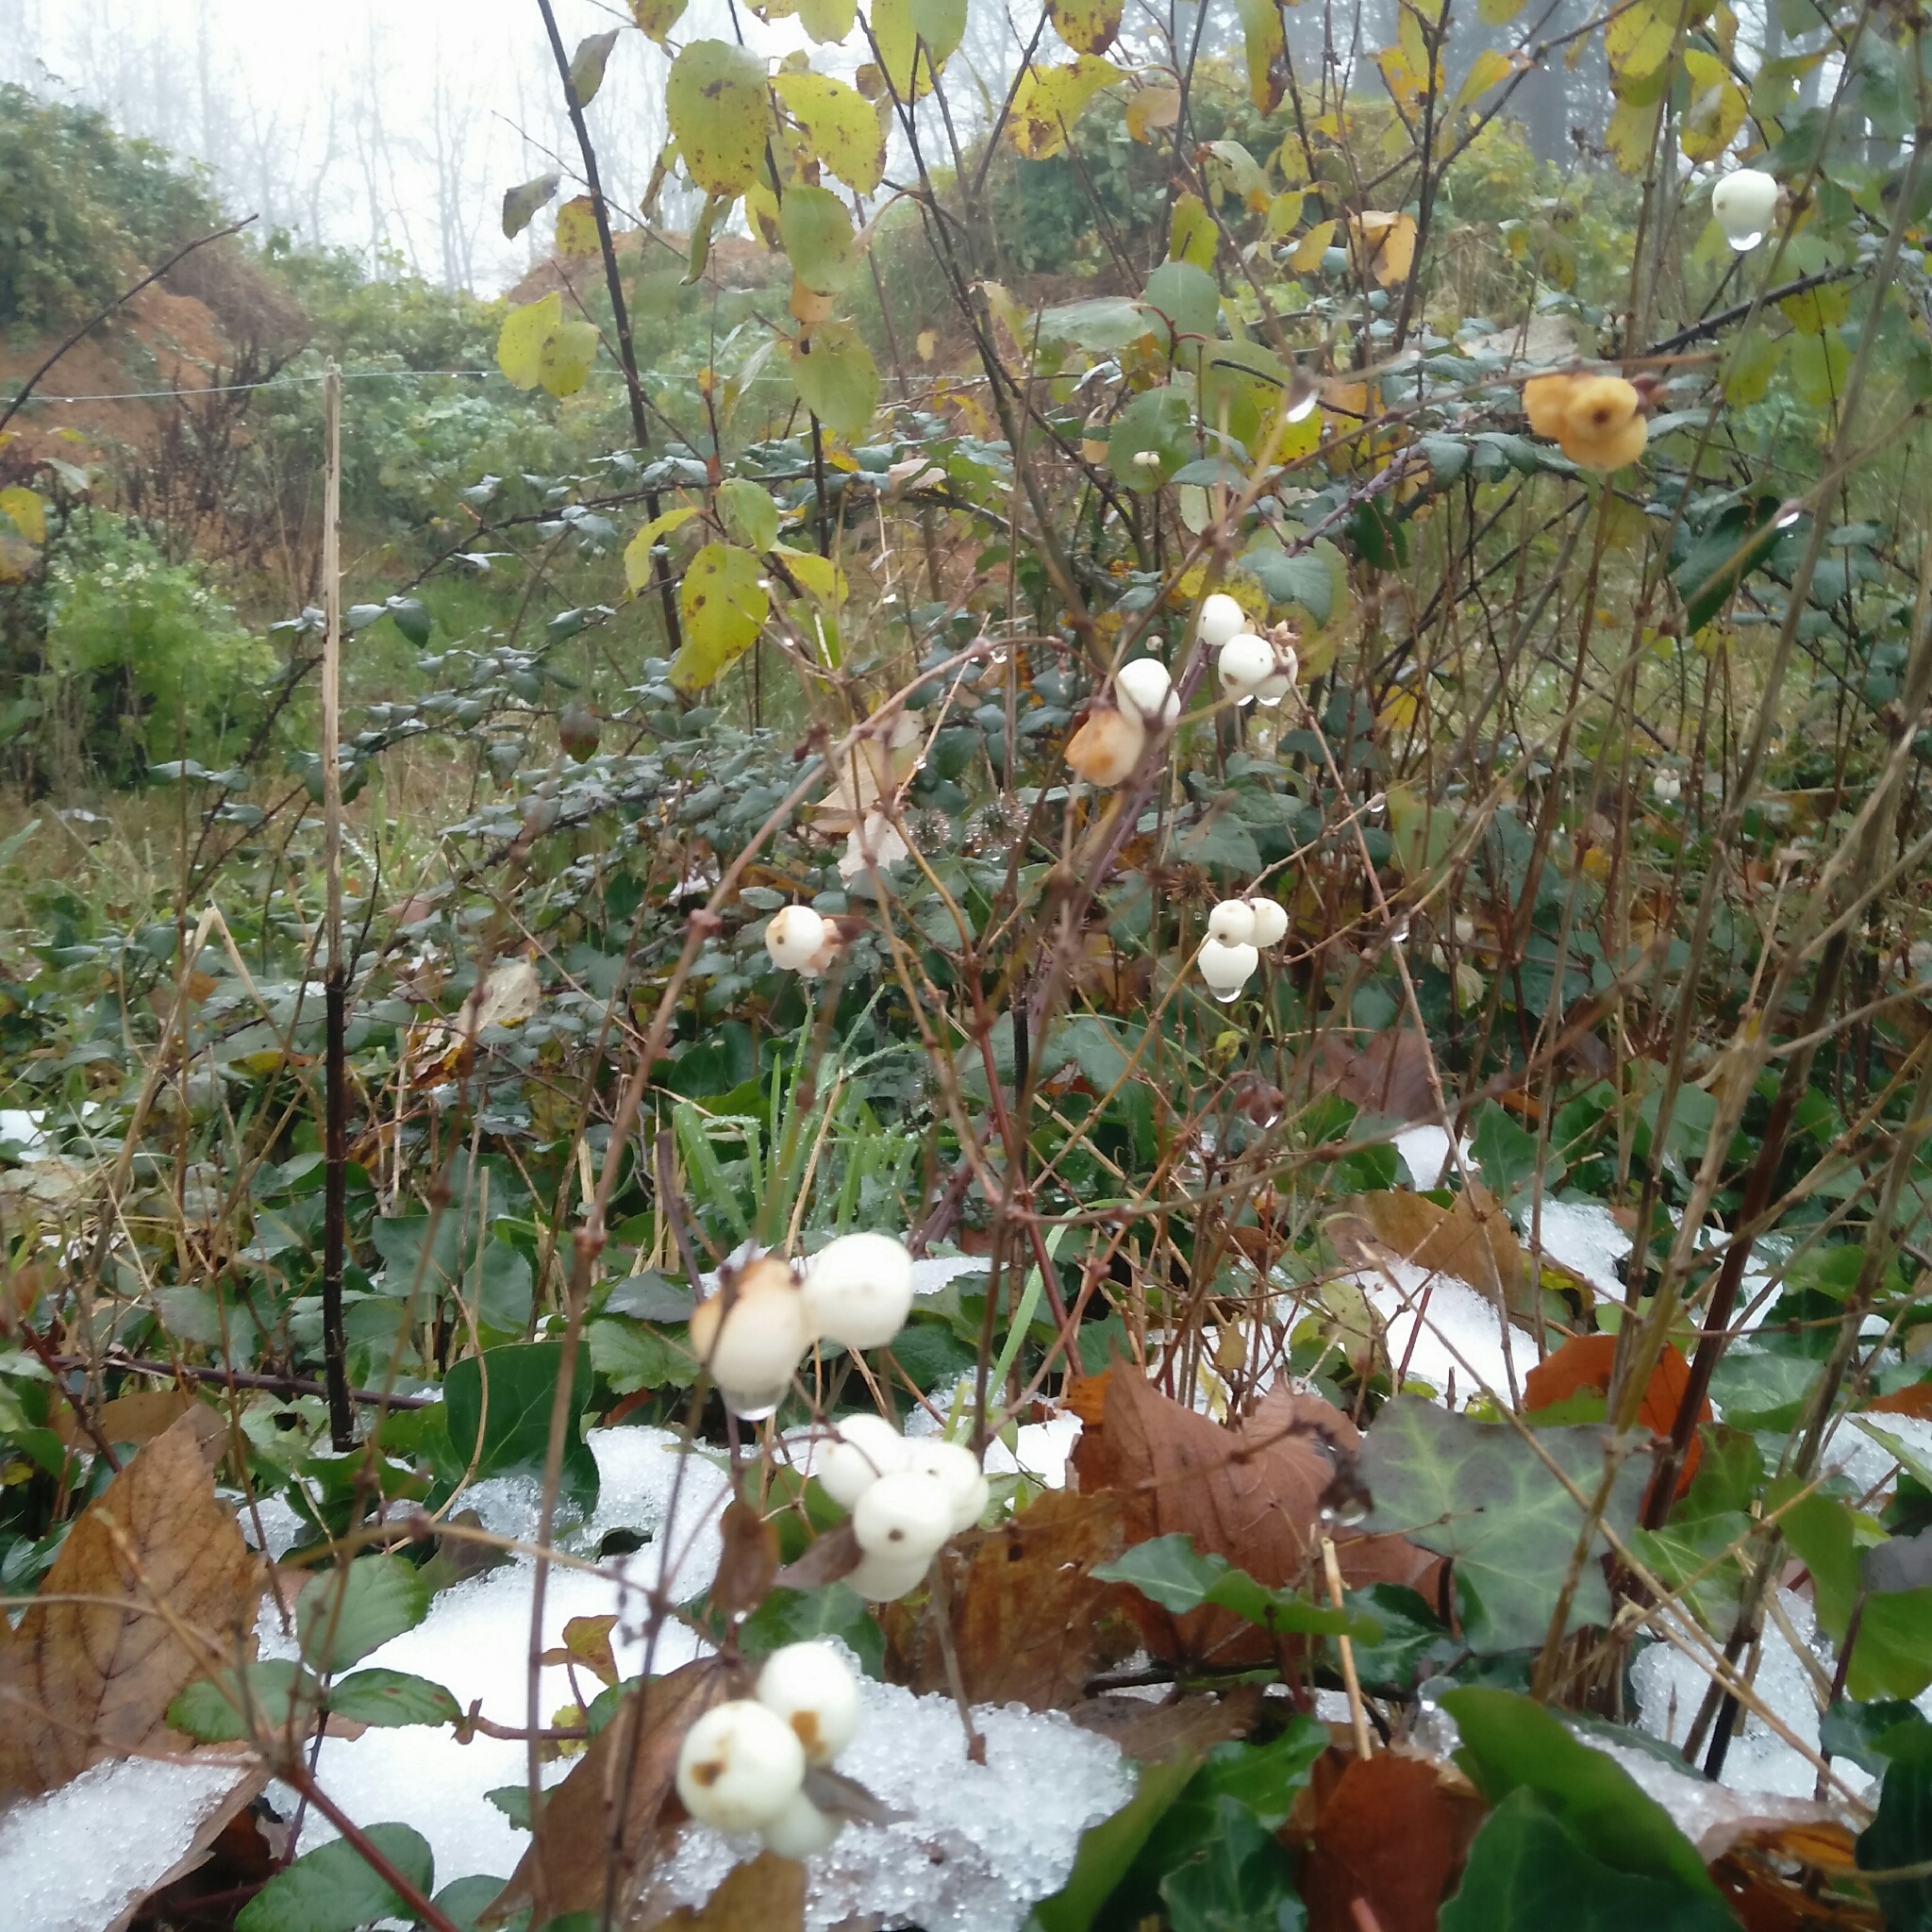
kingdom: Plantae
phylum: Tracheophyta
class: Magnoliopsida
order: Dipsacales
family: Caprifoliaceae
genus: Symphoricarpos
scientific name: Symphoricarpos albus
